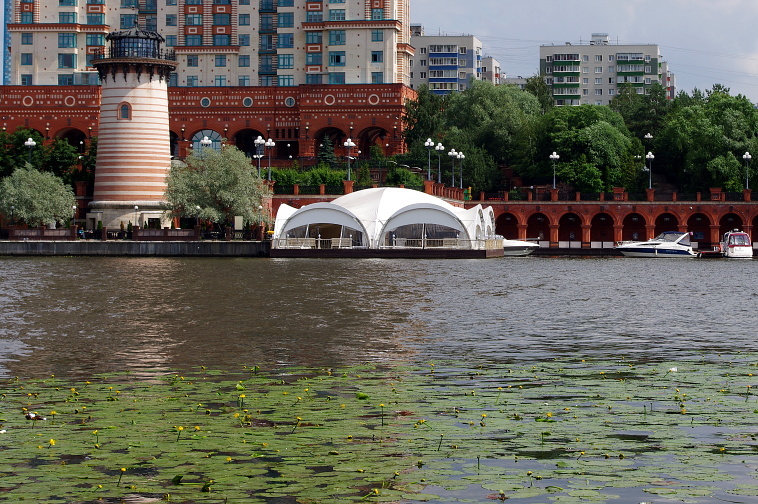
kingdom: Plantae
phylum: Tracheophyta
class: Magnoliopsida
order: Nymphaeales
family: Nymphaeaceae
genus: Nuphar
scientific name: Nuphar lutea
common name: Yellow water-lily
